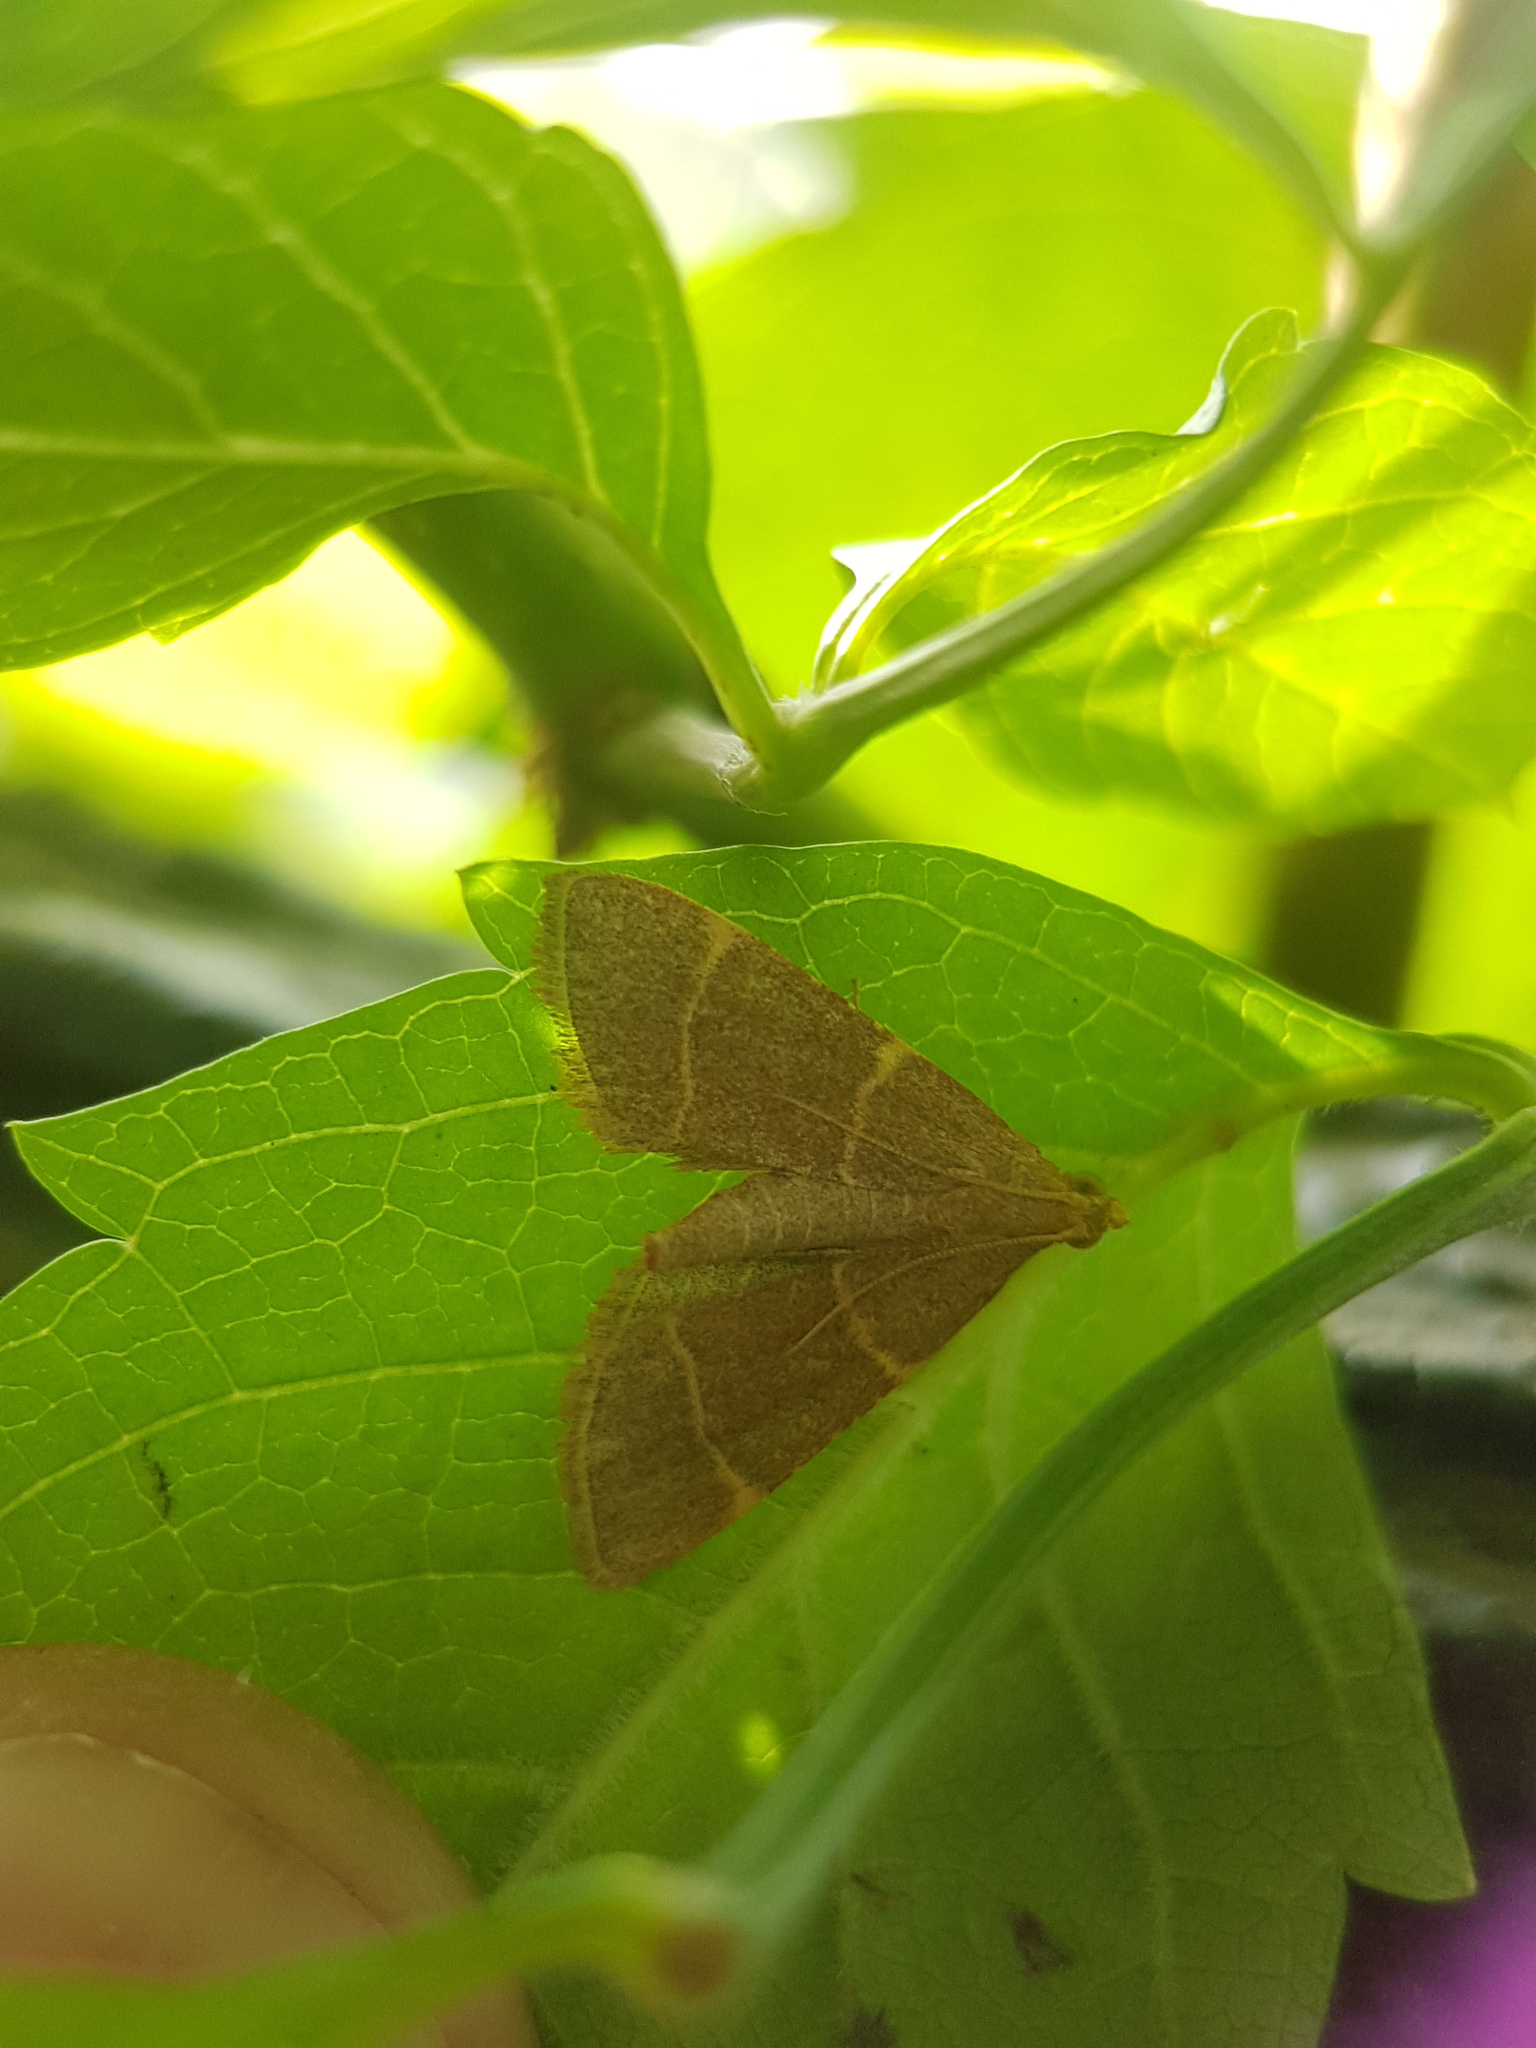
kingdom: Animalia
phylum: Arthropoda
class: Insecta
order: Lepidoptera
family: Pyralidae
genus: Hypsopygia
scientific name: Hypsopygia glaucinalis
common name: Double-striped tabby
